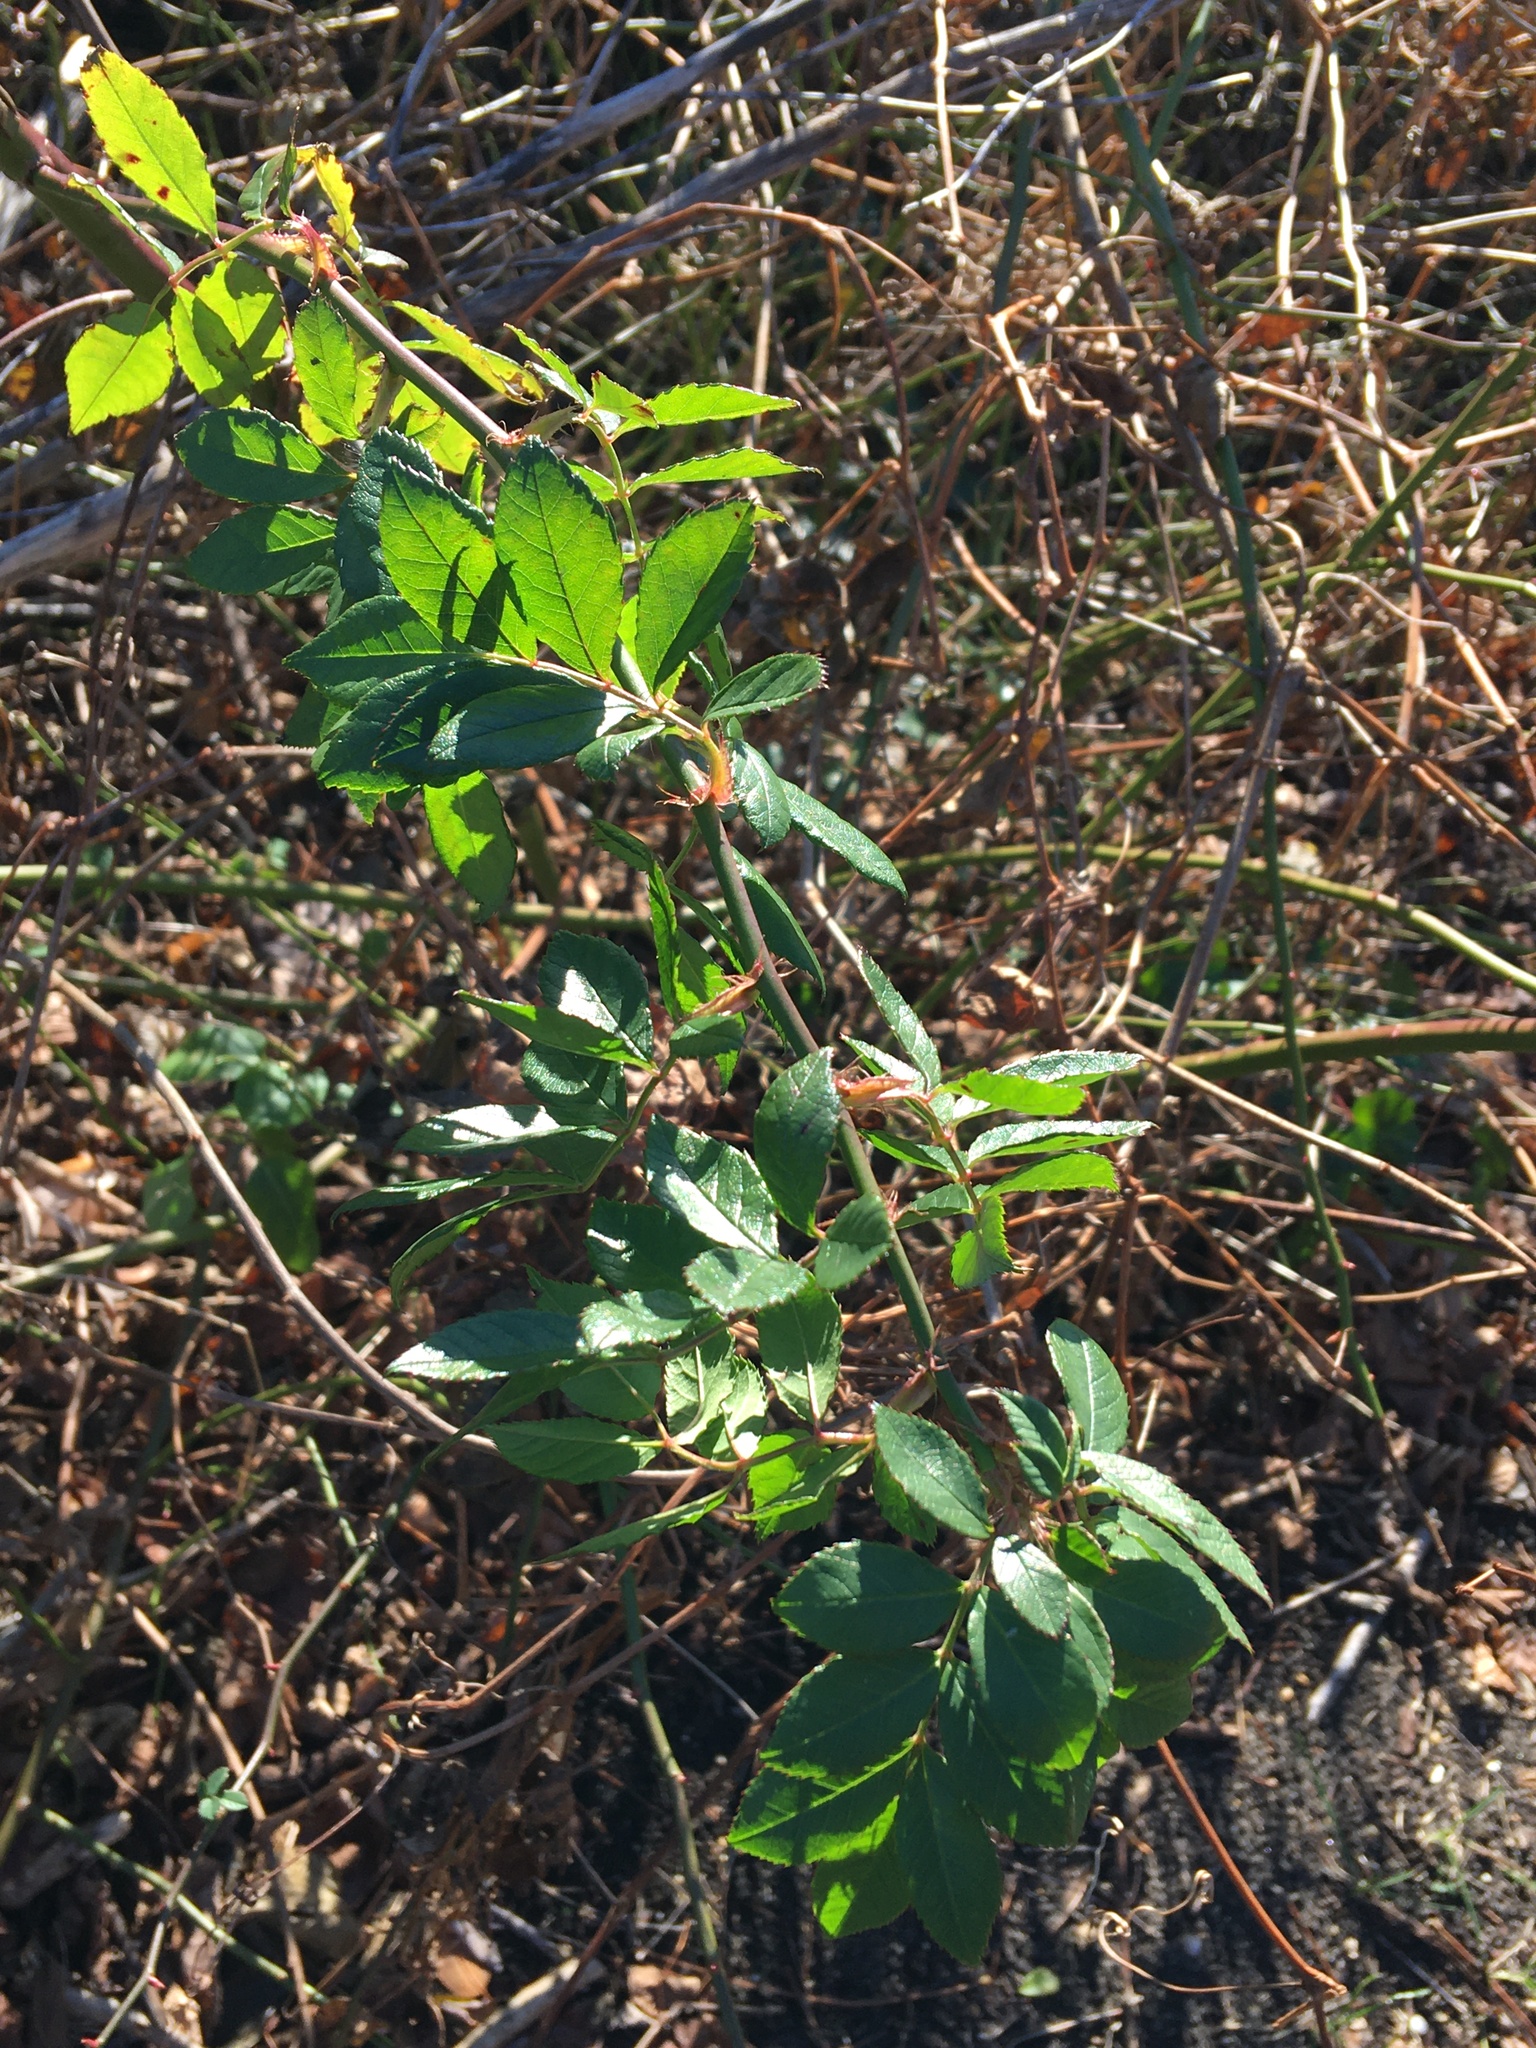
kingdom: Plantae
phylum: Tracheophyta
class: Magnoliopsida
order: Rosales
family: Rosaceae
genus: Rosa
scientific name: Rosa multiflora
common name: Multiflora rose
